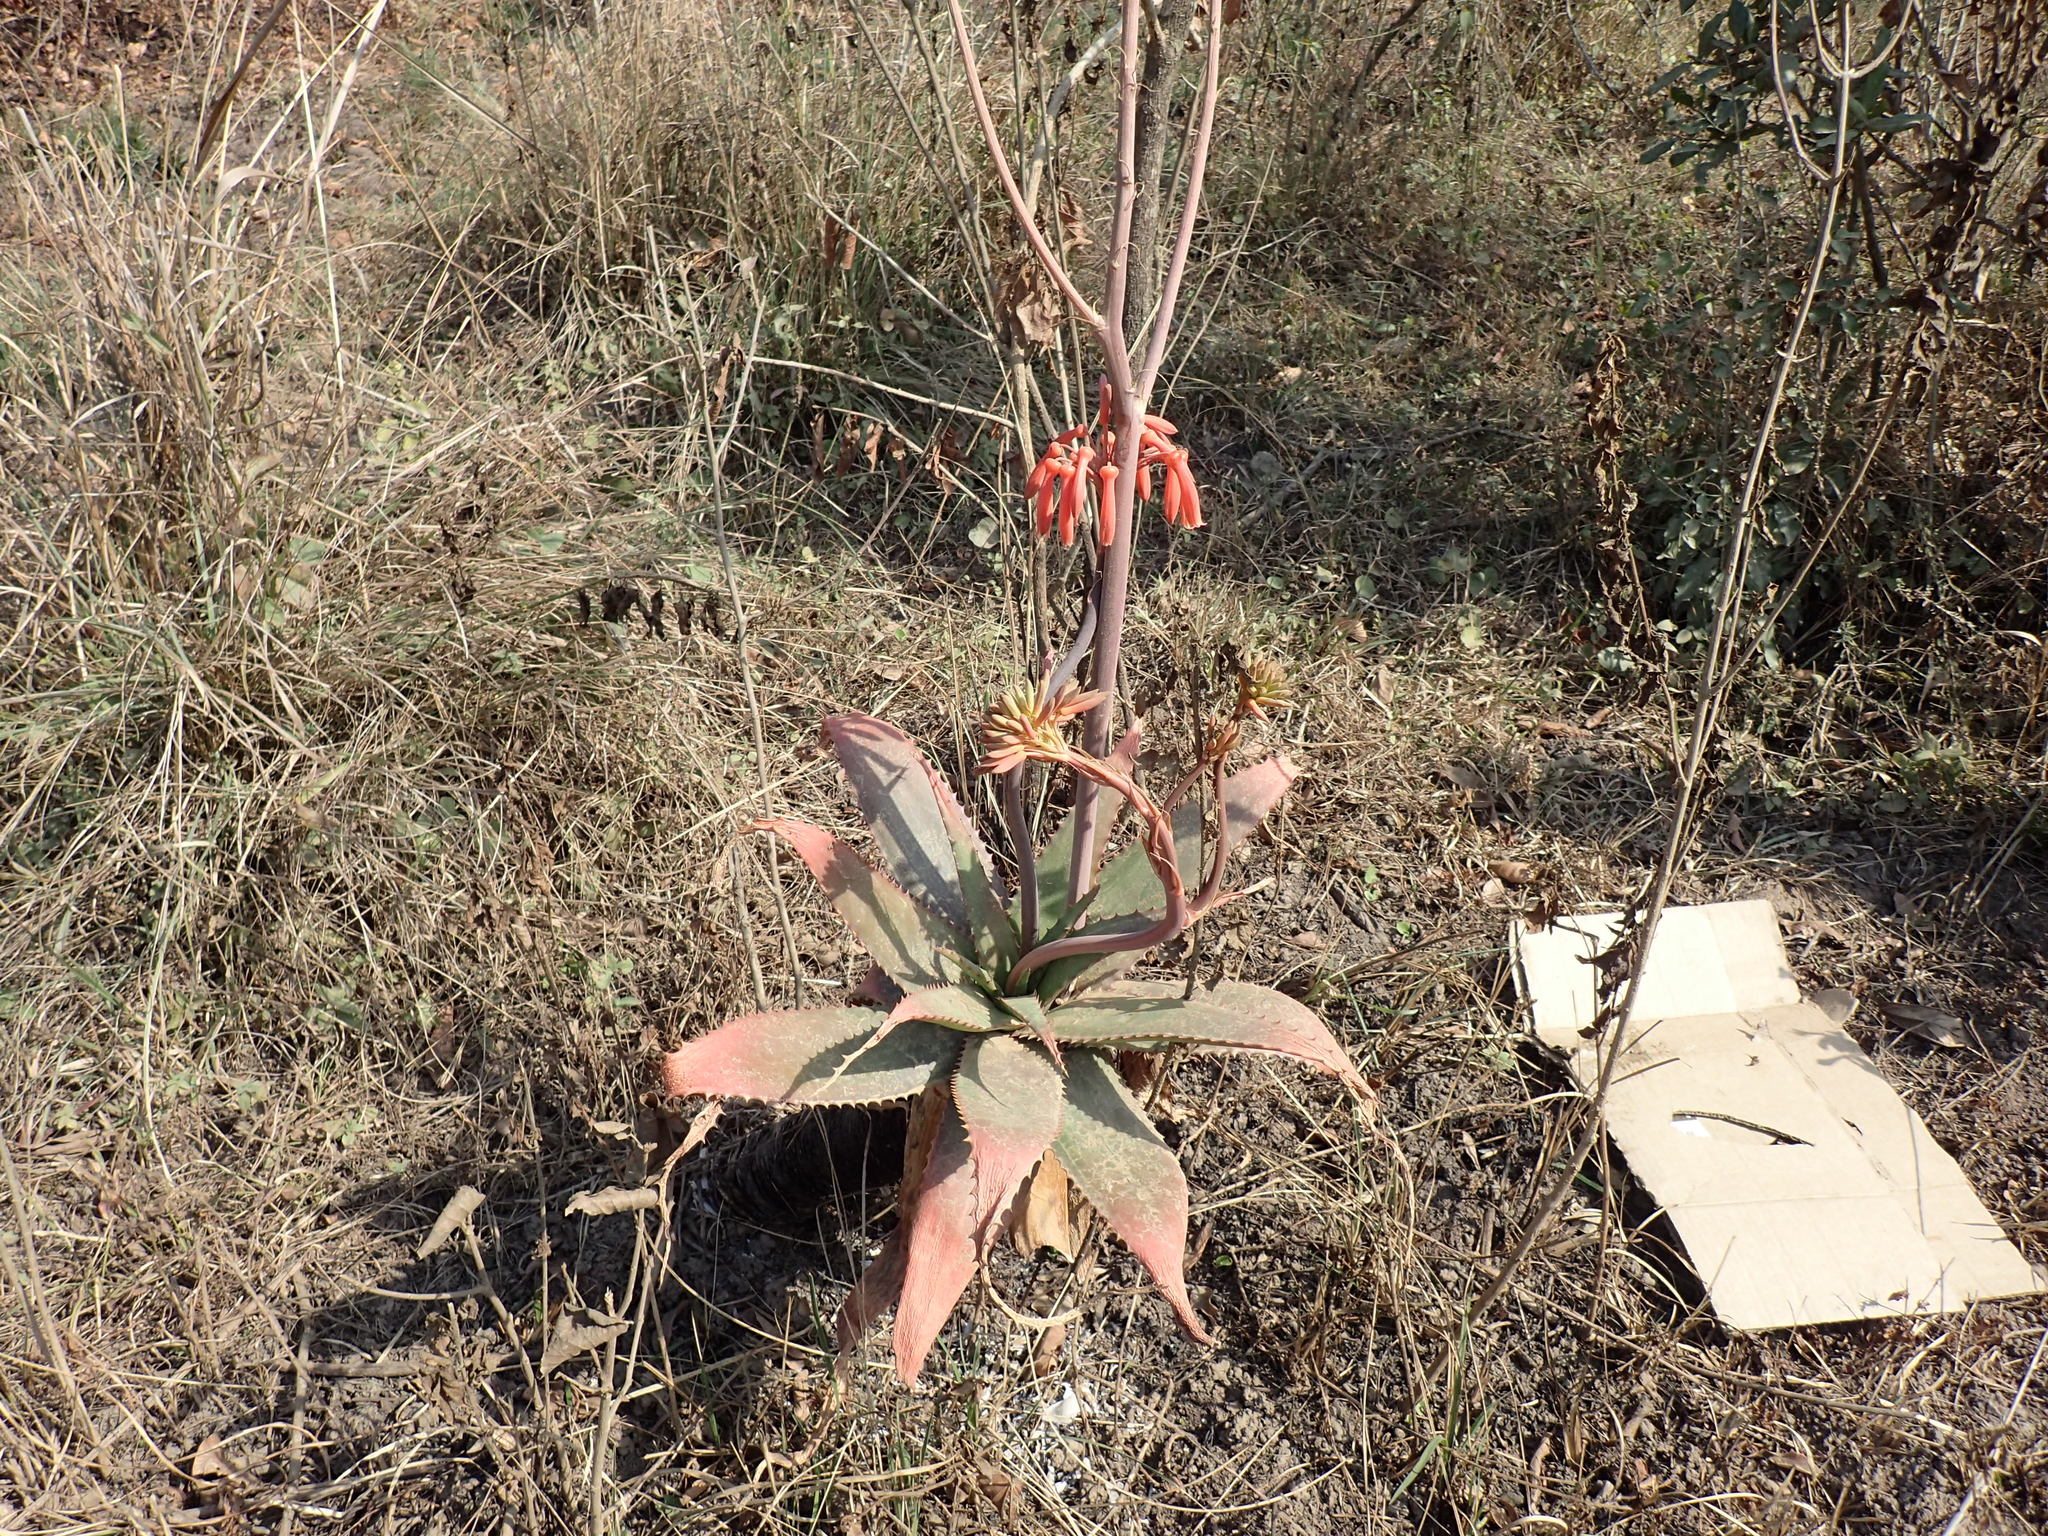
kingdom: Plantae
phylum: Tracheophyta
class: Liliopsida
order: Asparagales
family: Asphodelaceae
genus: Aloe
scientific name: Aloe maculata
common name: Broadleaf aloe
